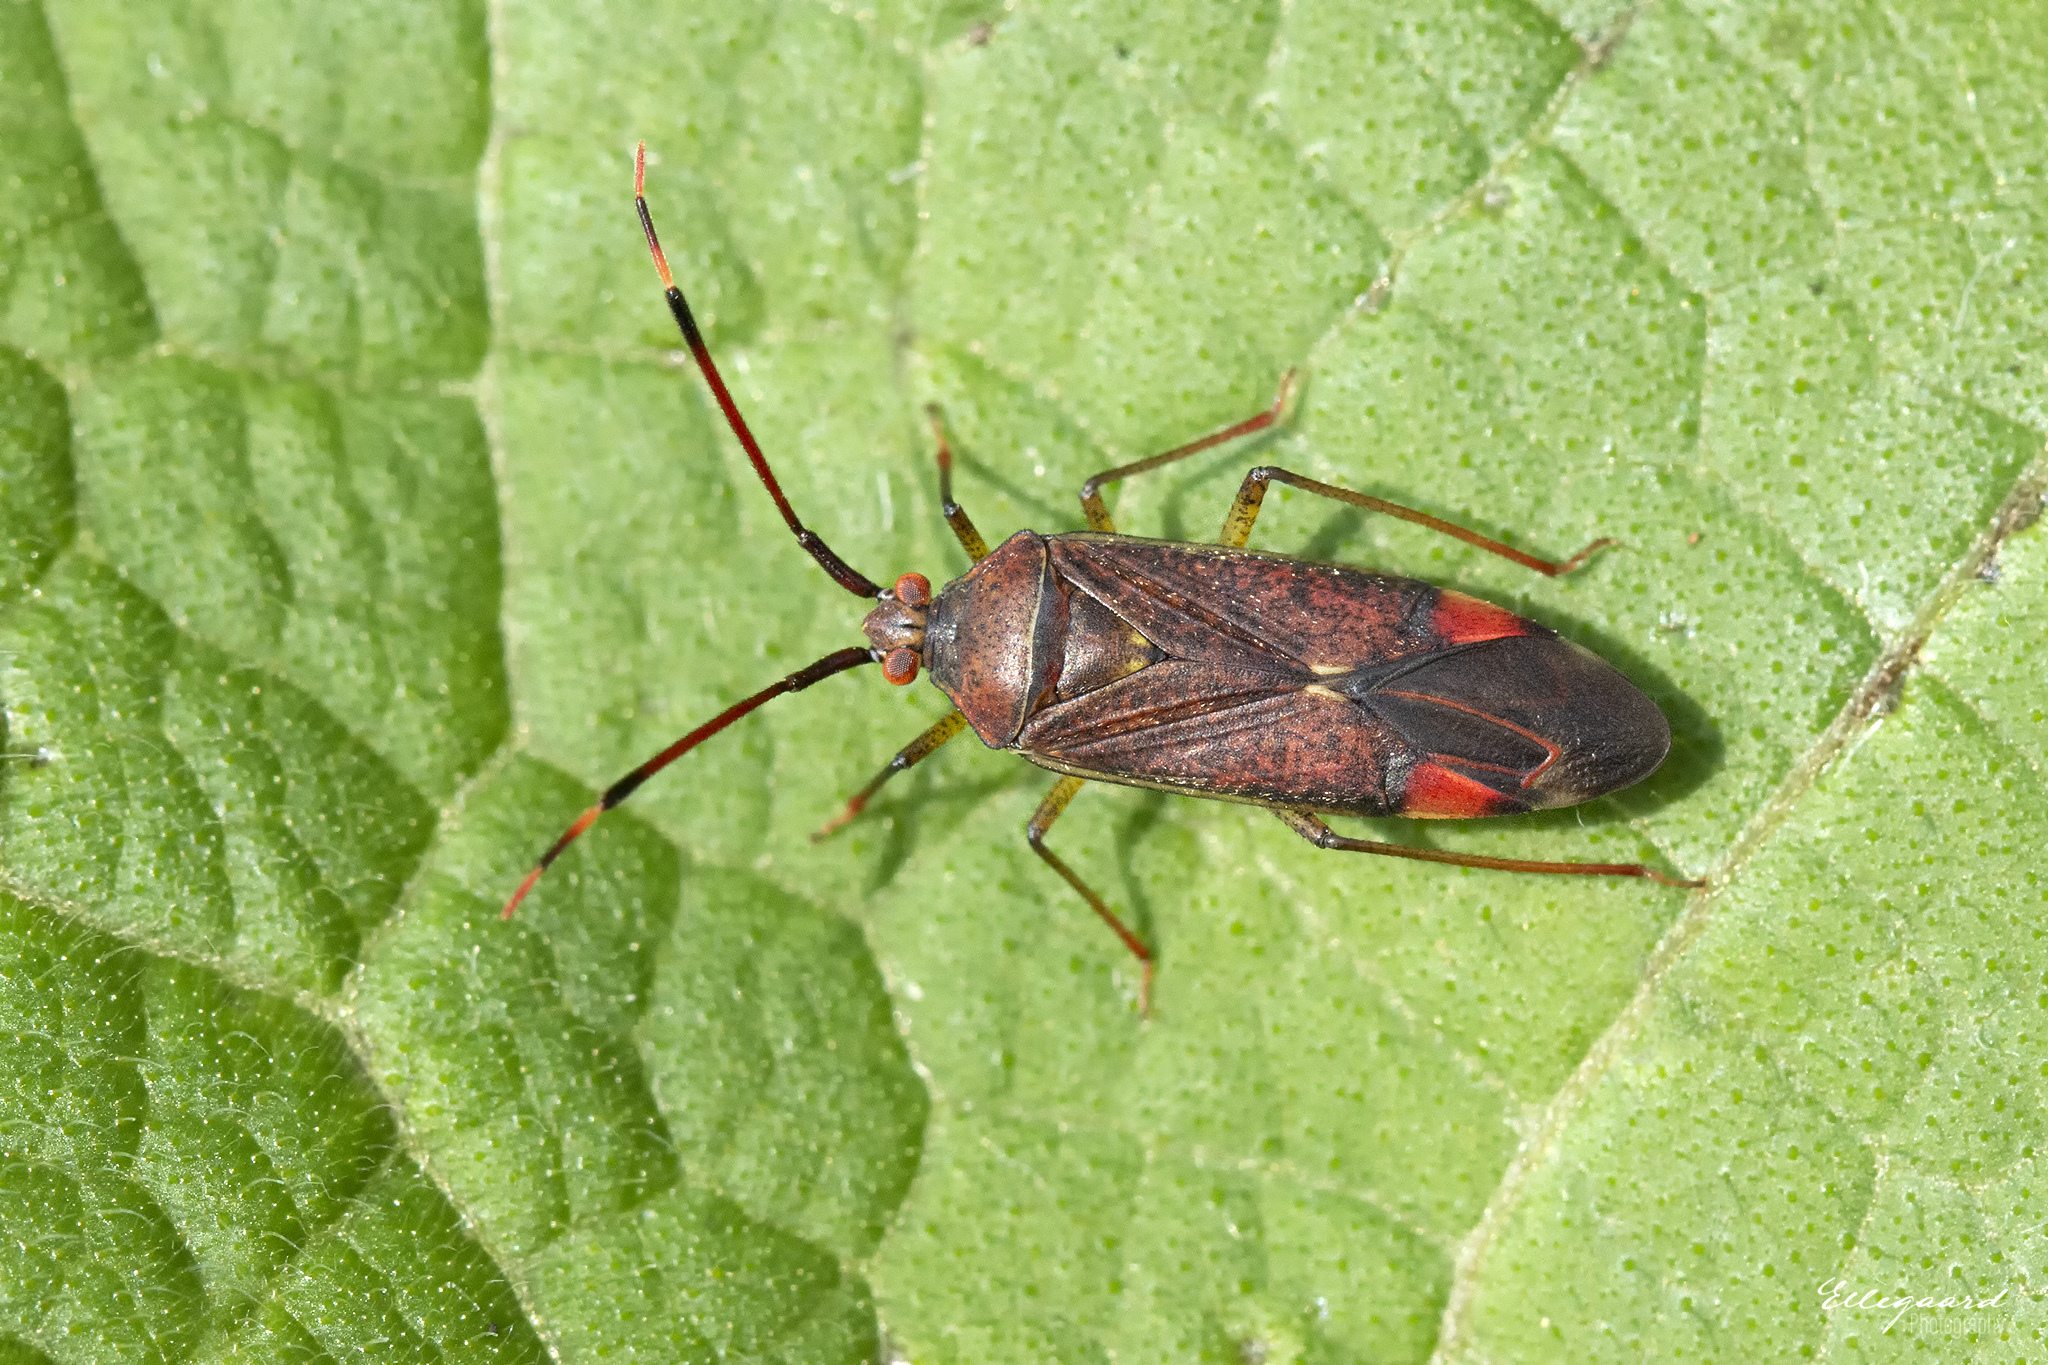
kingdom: Animalia
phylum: Arthropoda
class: Insecta
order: Hemiptera
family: Miridae
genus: Pantilius
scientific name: Pantilius tunicatus
